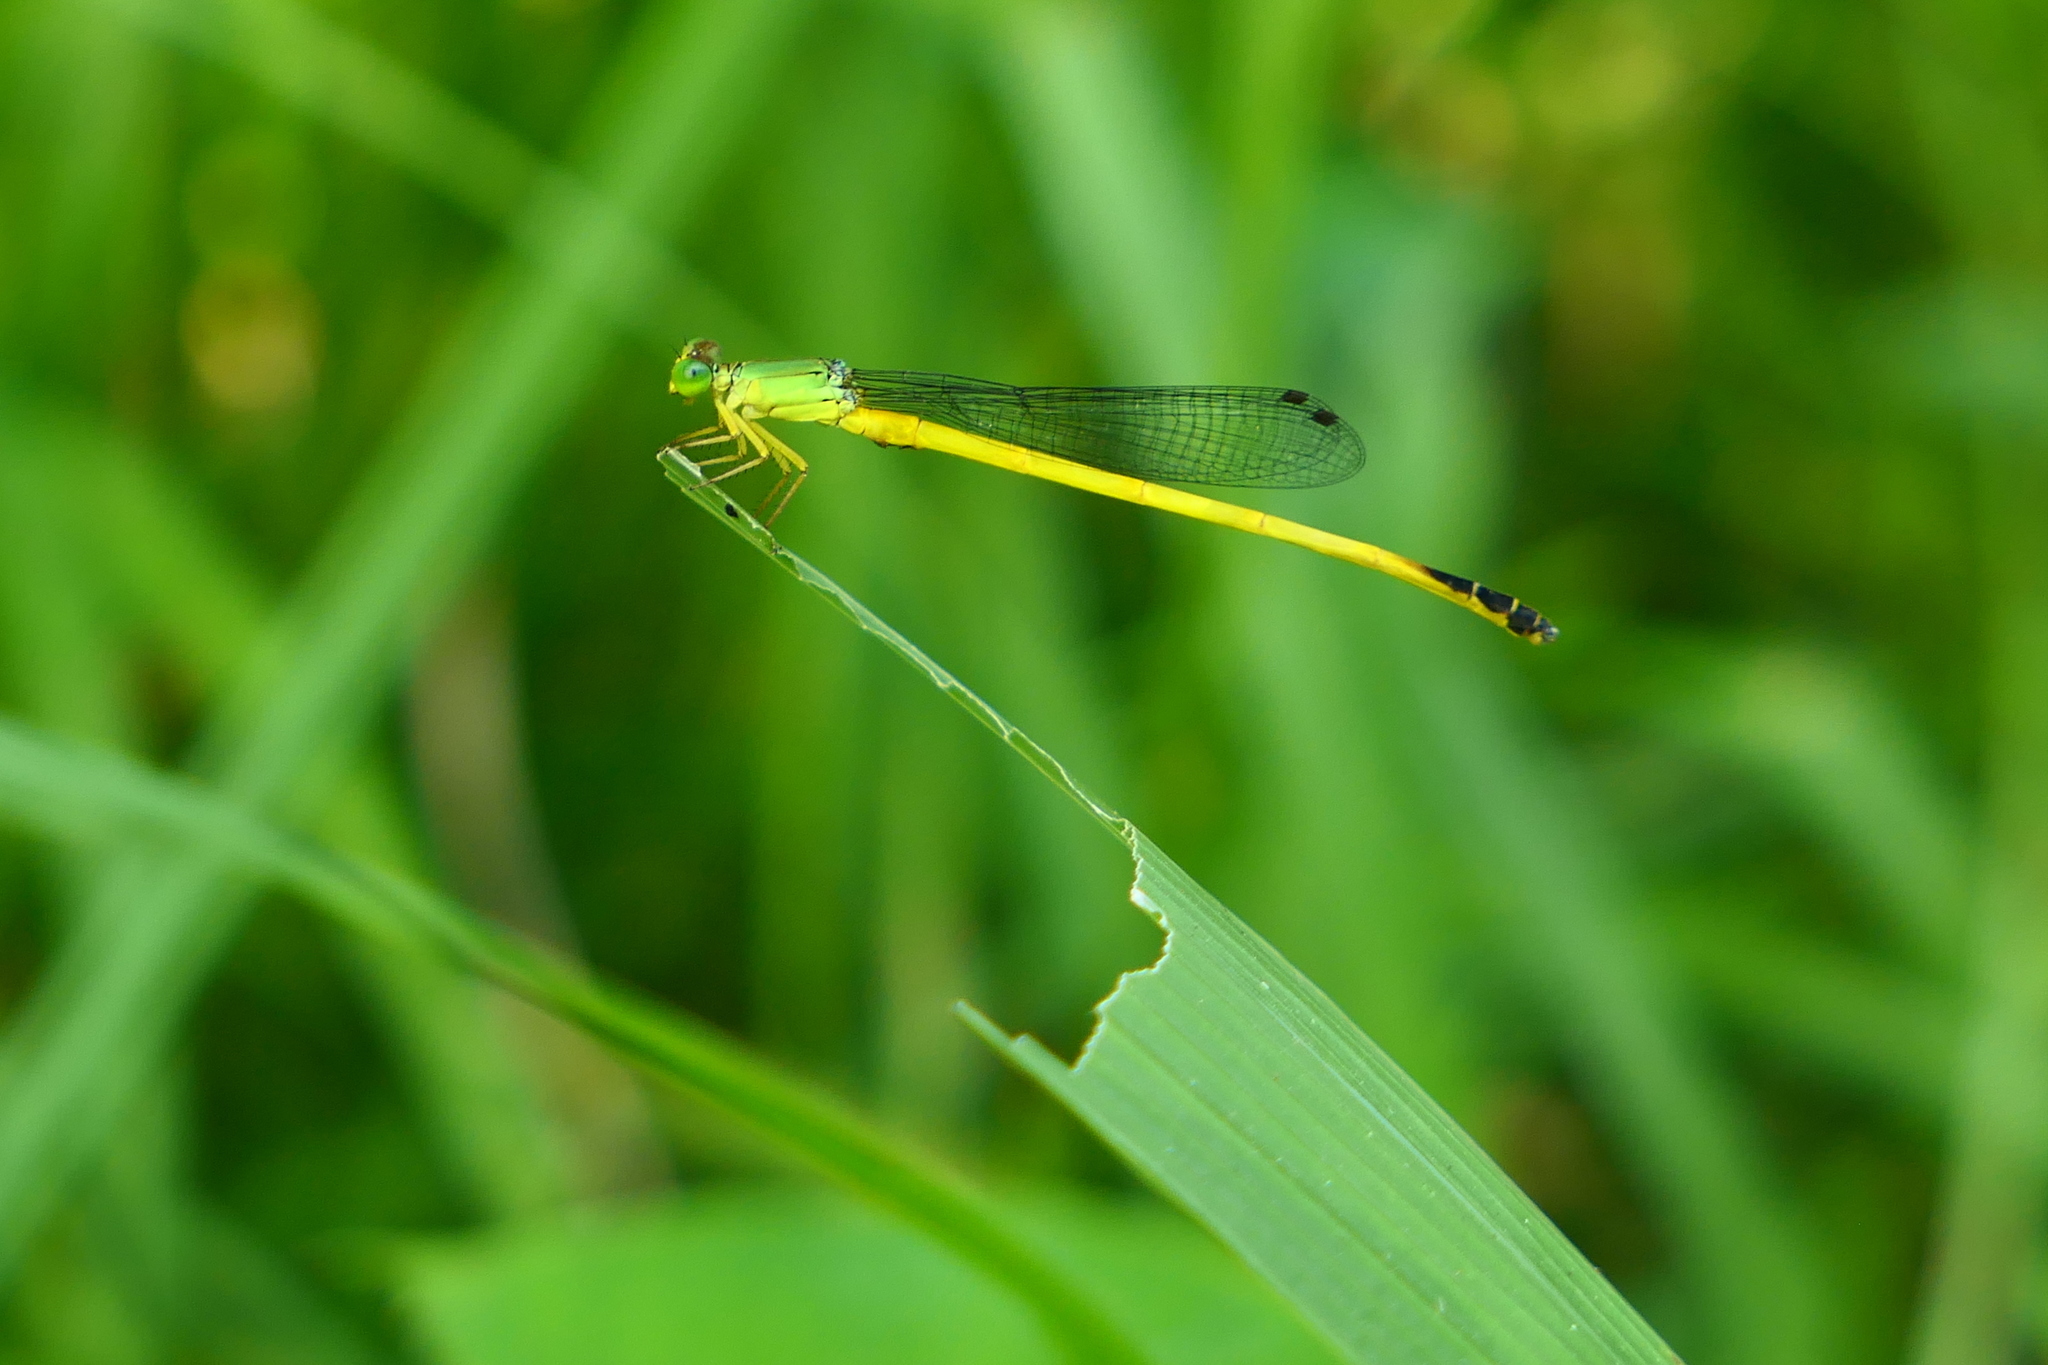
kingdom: Animalia
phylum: Arthropoda
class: Insecta
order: Odonata
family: Coenagrionidae
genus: Ceriagrion
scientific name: Ceriagrion fallax
